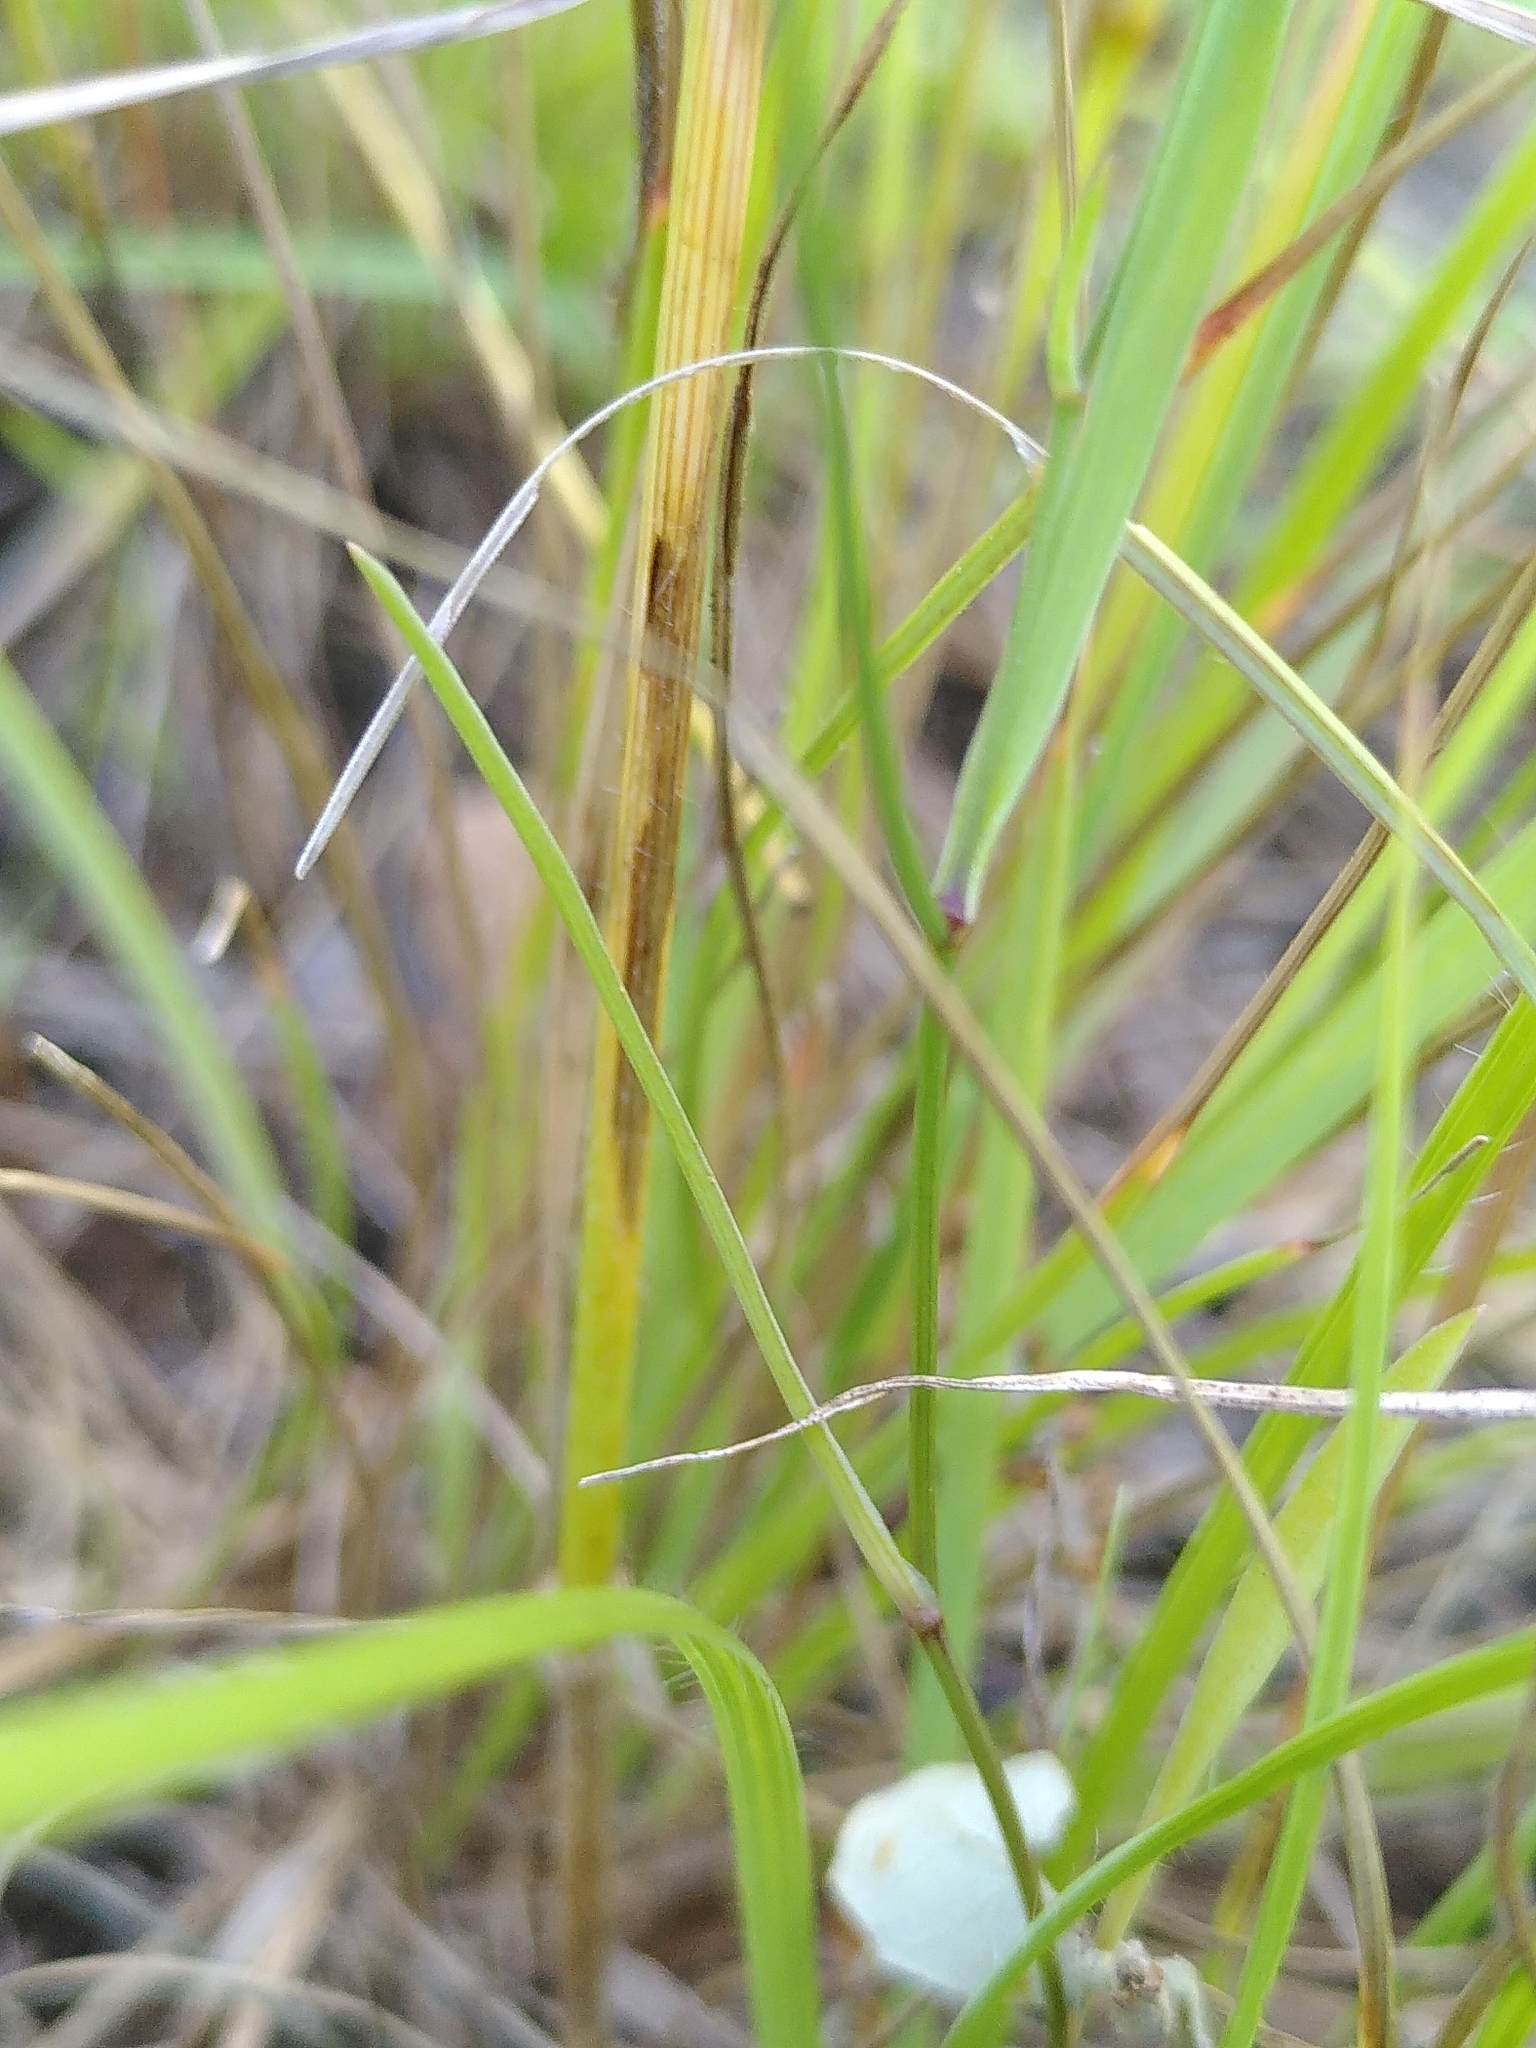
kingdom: Plantae
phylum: Tracheophyta
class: Magnoliopsida
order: Apiales
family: Apiaceae
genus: Bupleurum
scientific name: Bupleurum baldense
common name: Small hare's-ear
